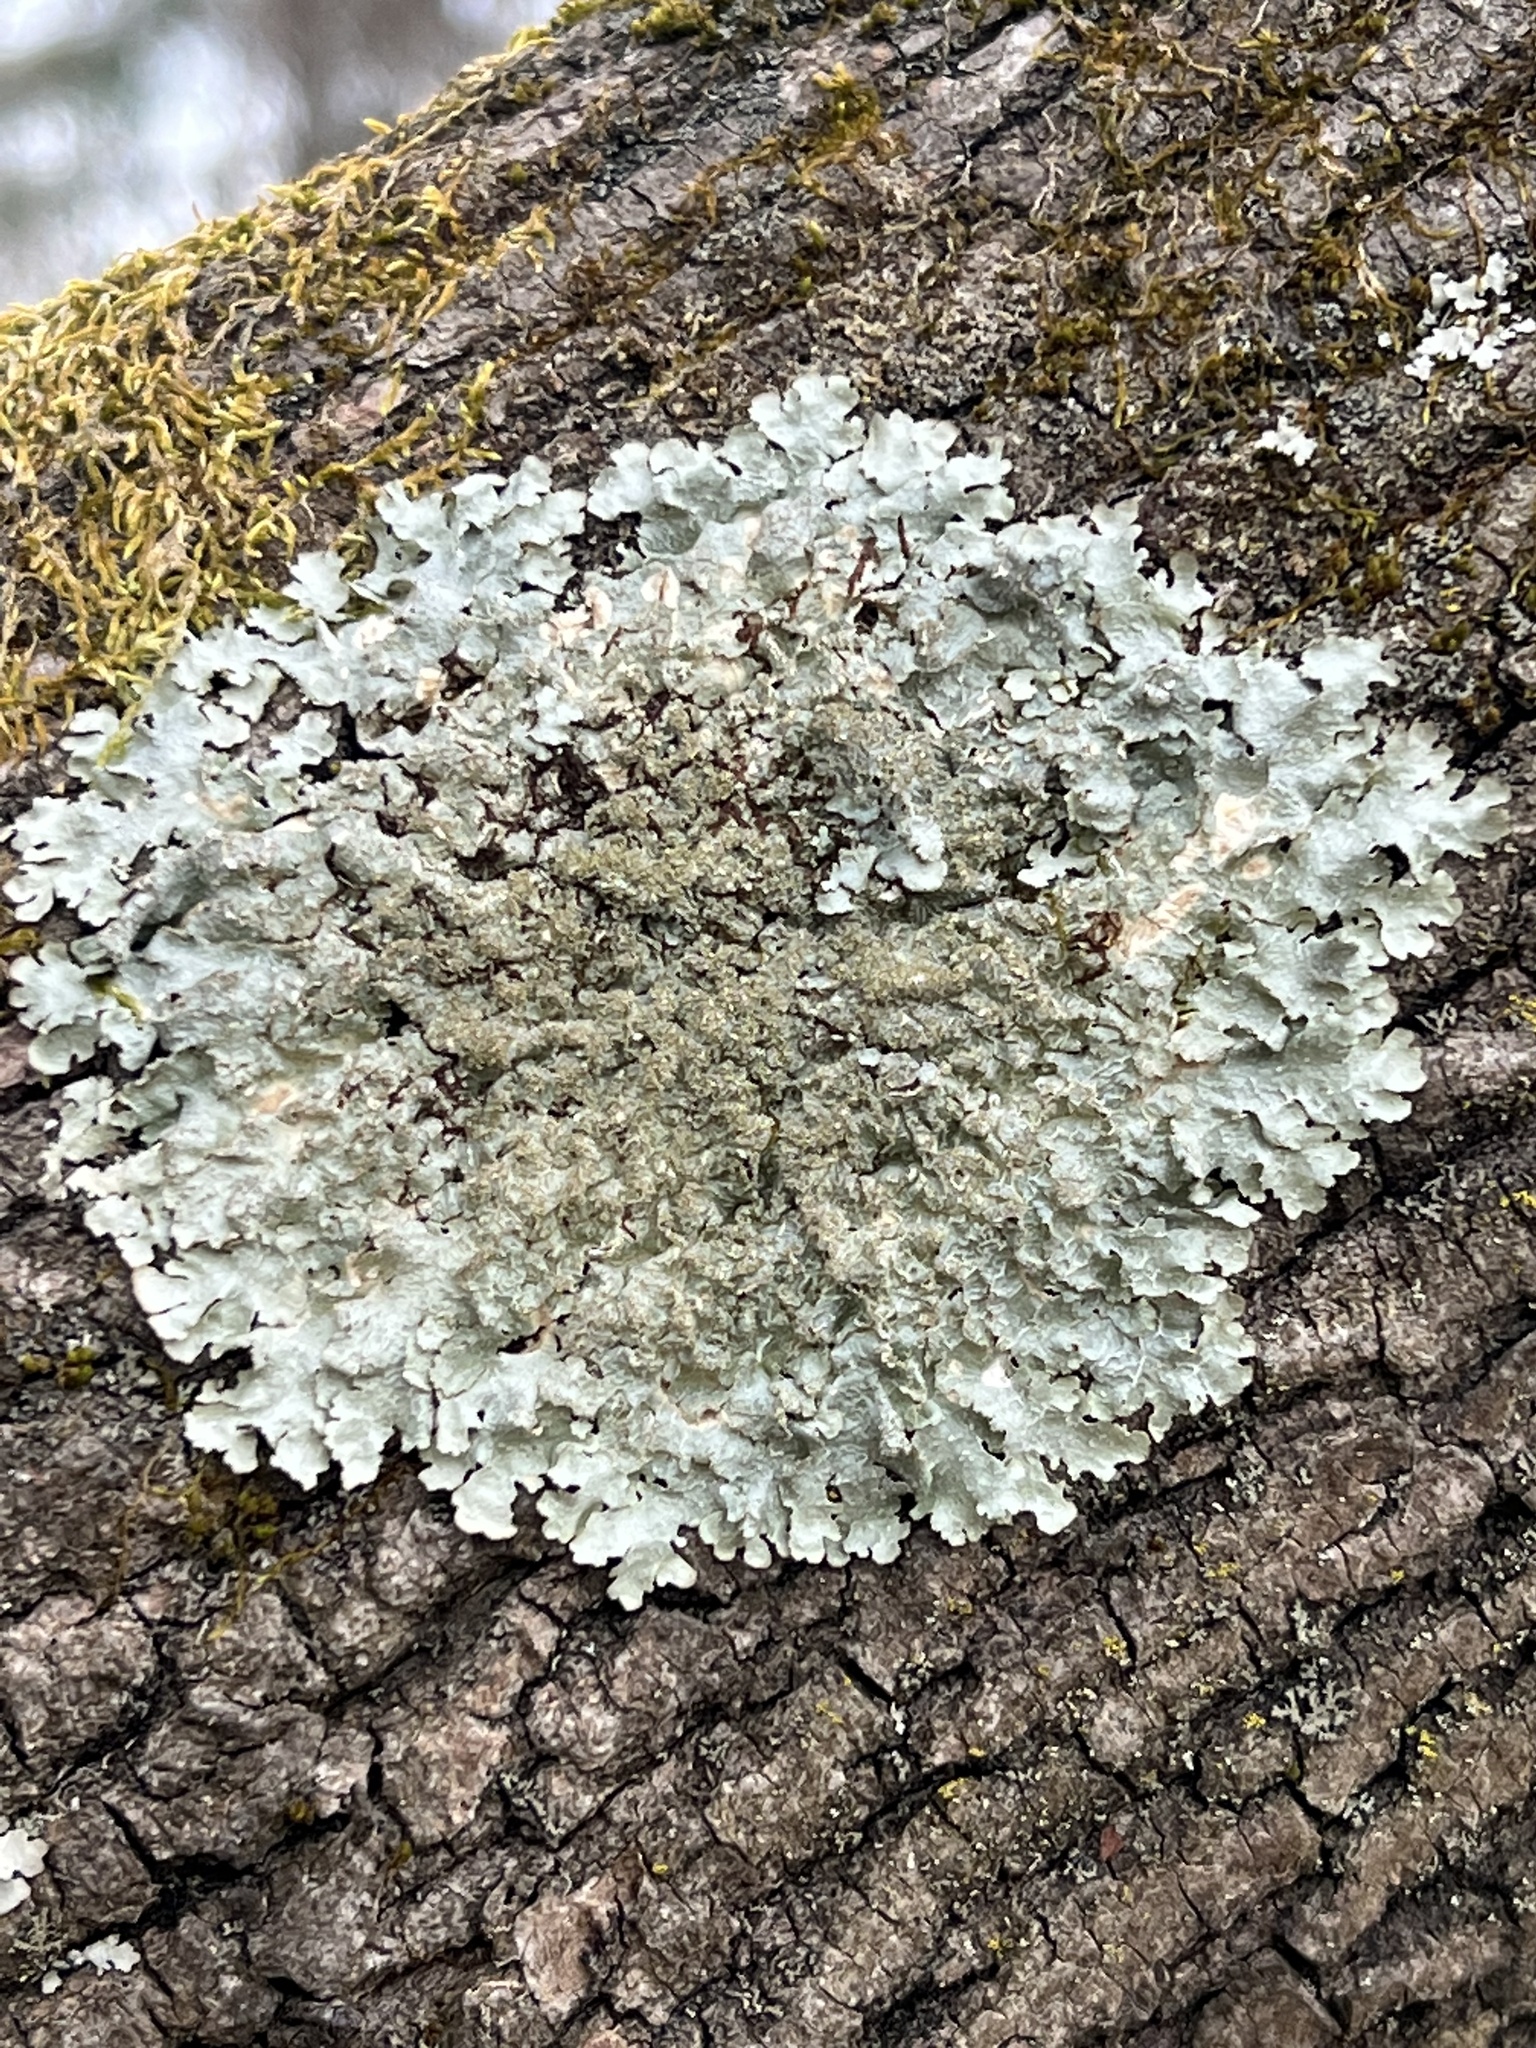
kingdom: Fungi
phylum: Ascomycota
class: Lecanoromycetes
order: Lecanorales
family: Parmeliaceae
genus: Flavoparmelia
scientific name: Flavoparmelia caperata
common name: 40-mile per hour lichen
